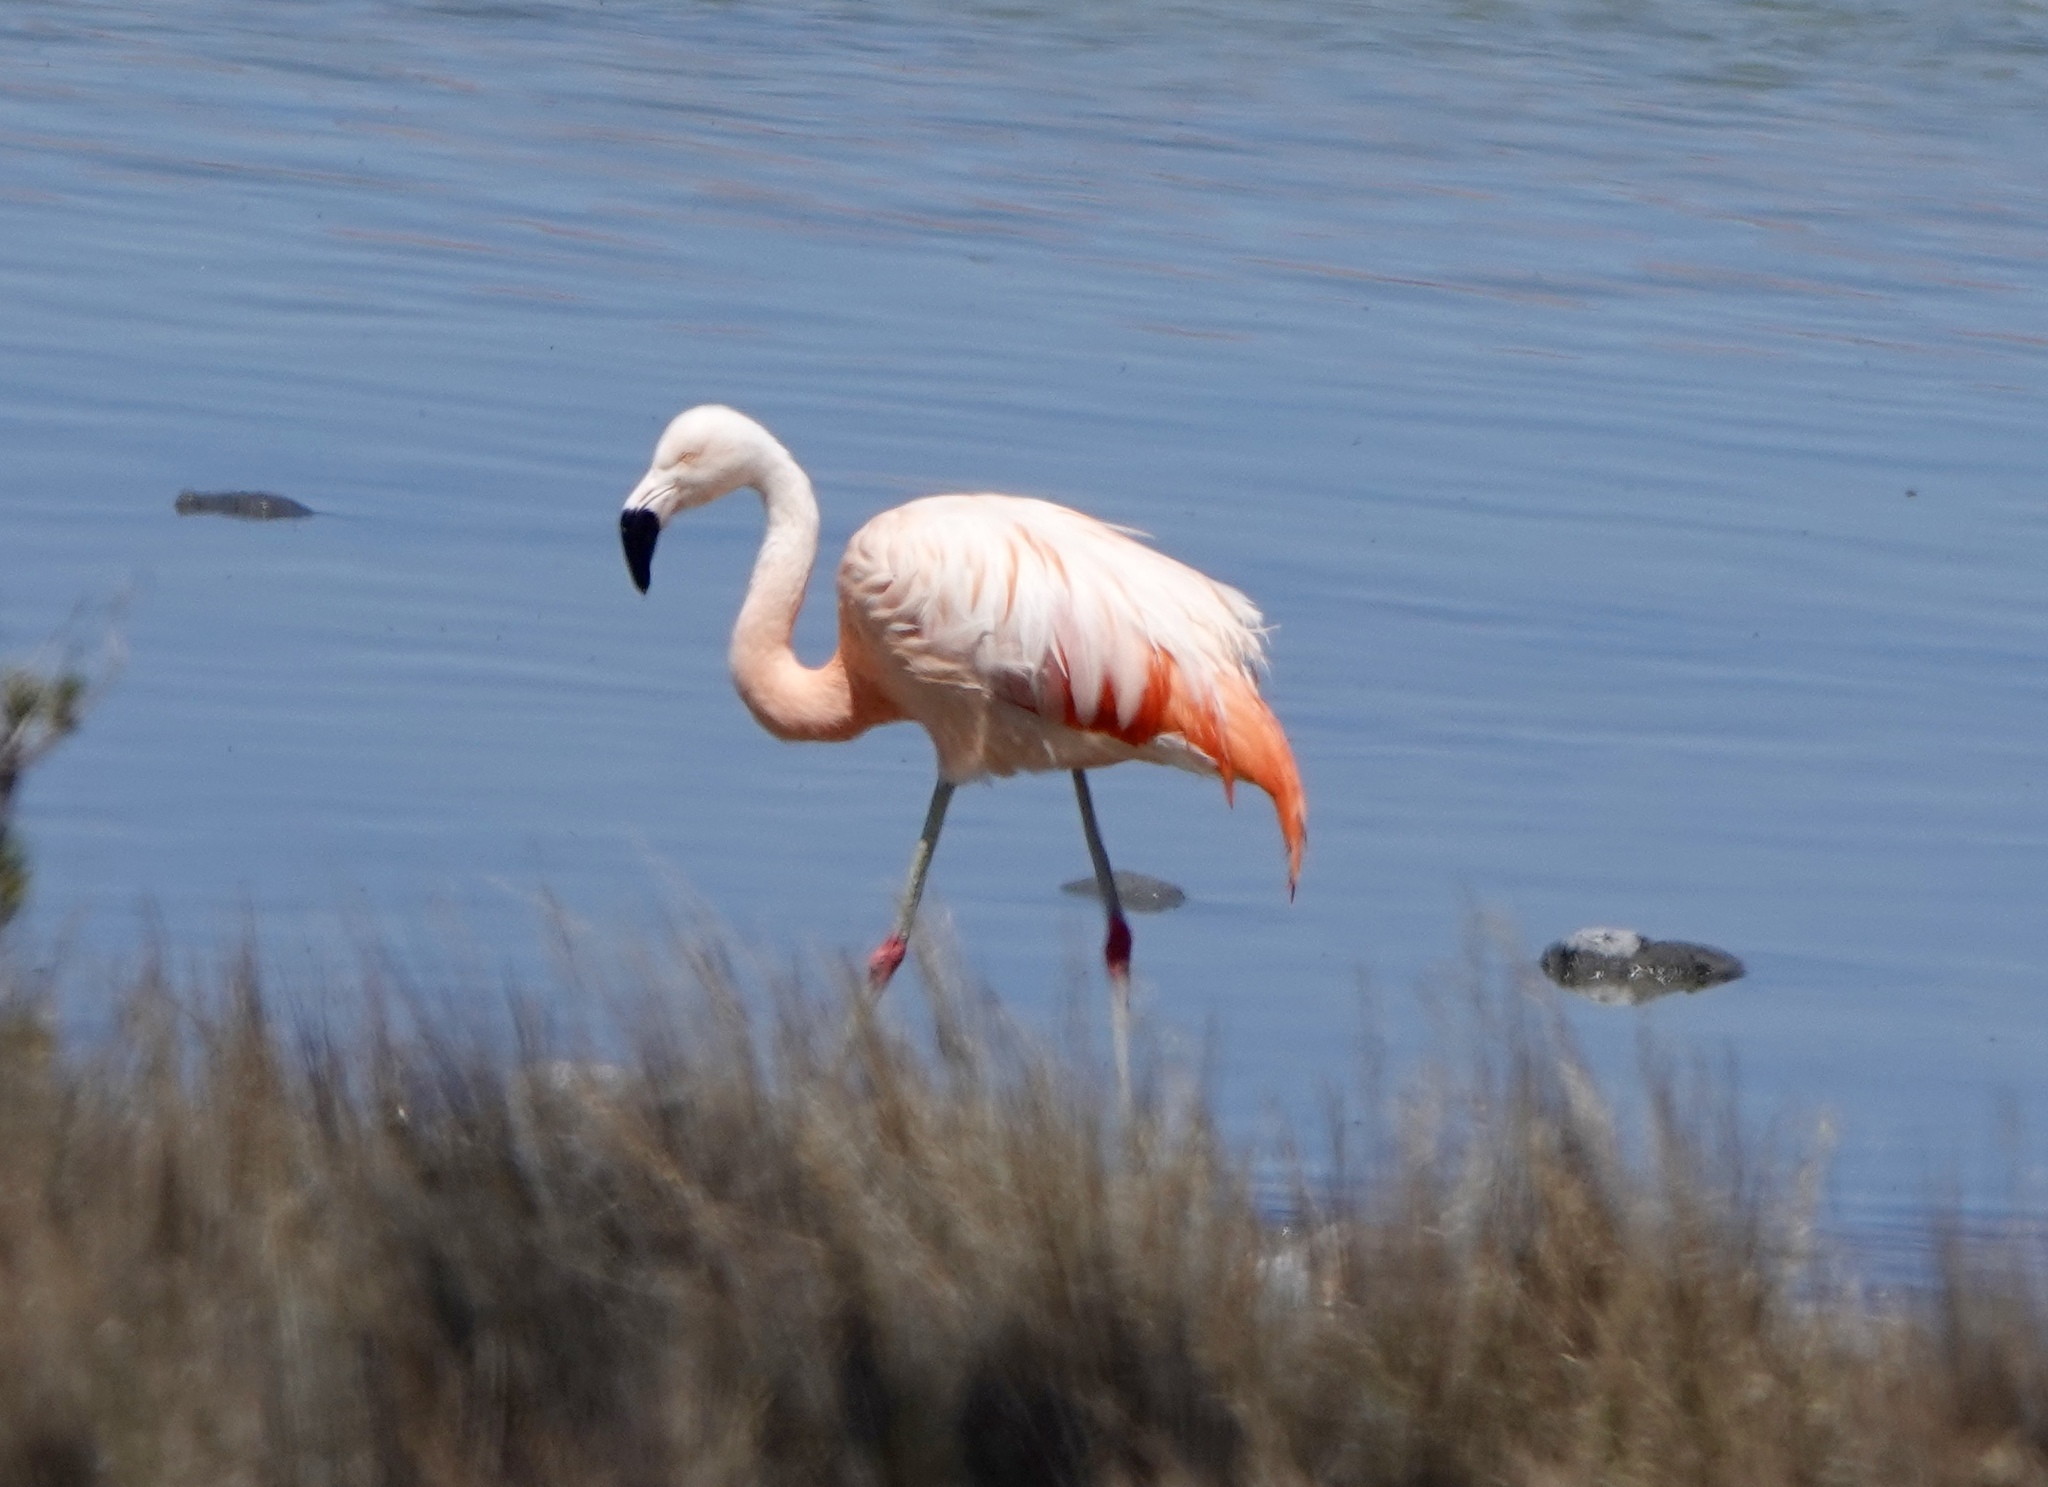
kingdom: Animalia
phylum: Chordata
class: Aves
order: Phoenicopteriformes
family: Phoenicopteridae
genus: Phoenicopterus
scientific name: Phoenicopterus chilensis
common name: Chilean flamingo
